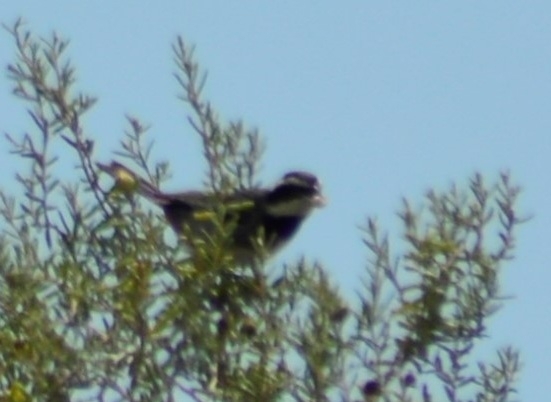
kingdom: Animalia
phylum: Chordata
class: Aves
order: Passeriformes
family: Thraupidae
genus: Microspingus
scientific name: Microspingus torquatus
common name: Ringed warbling-finch
